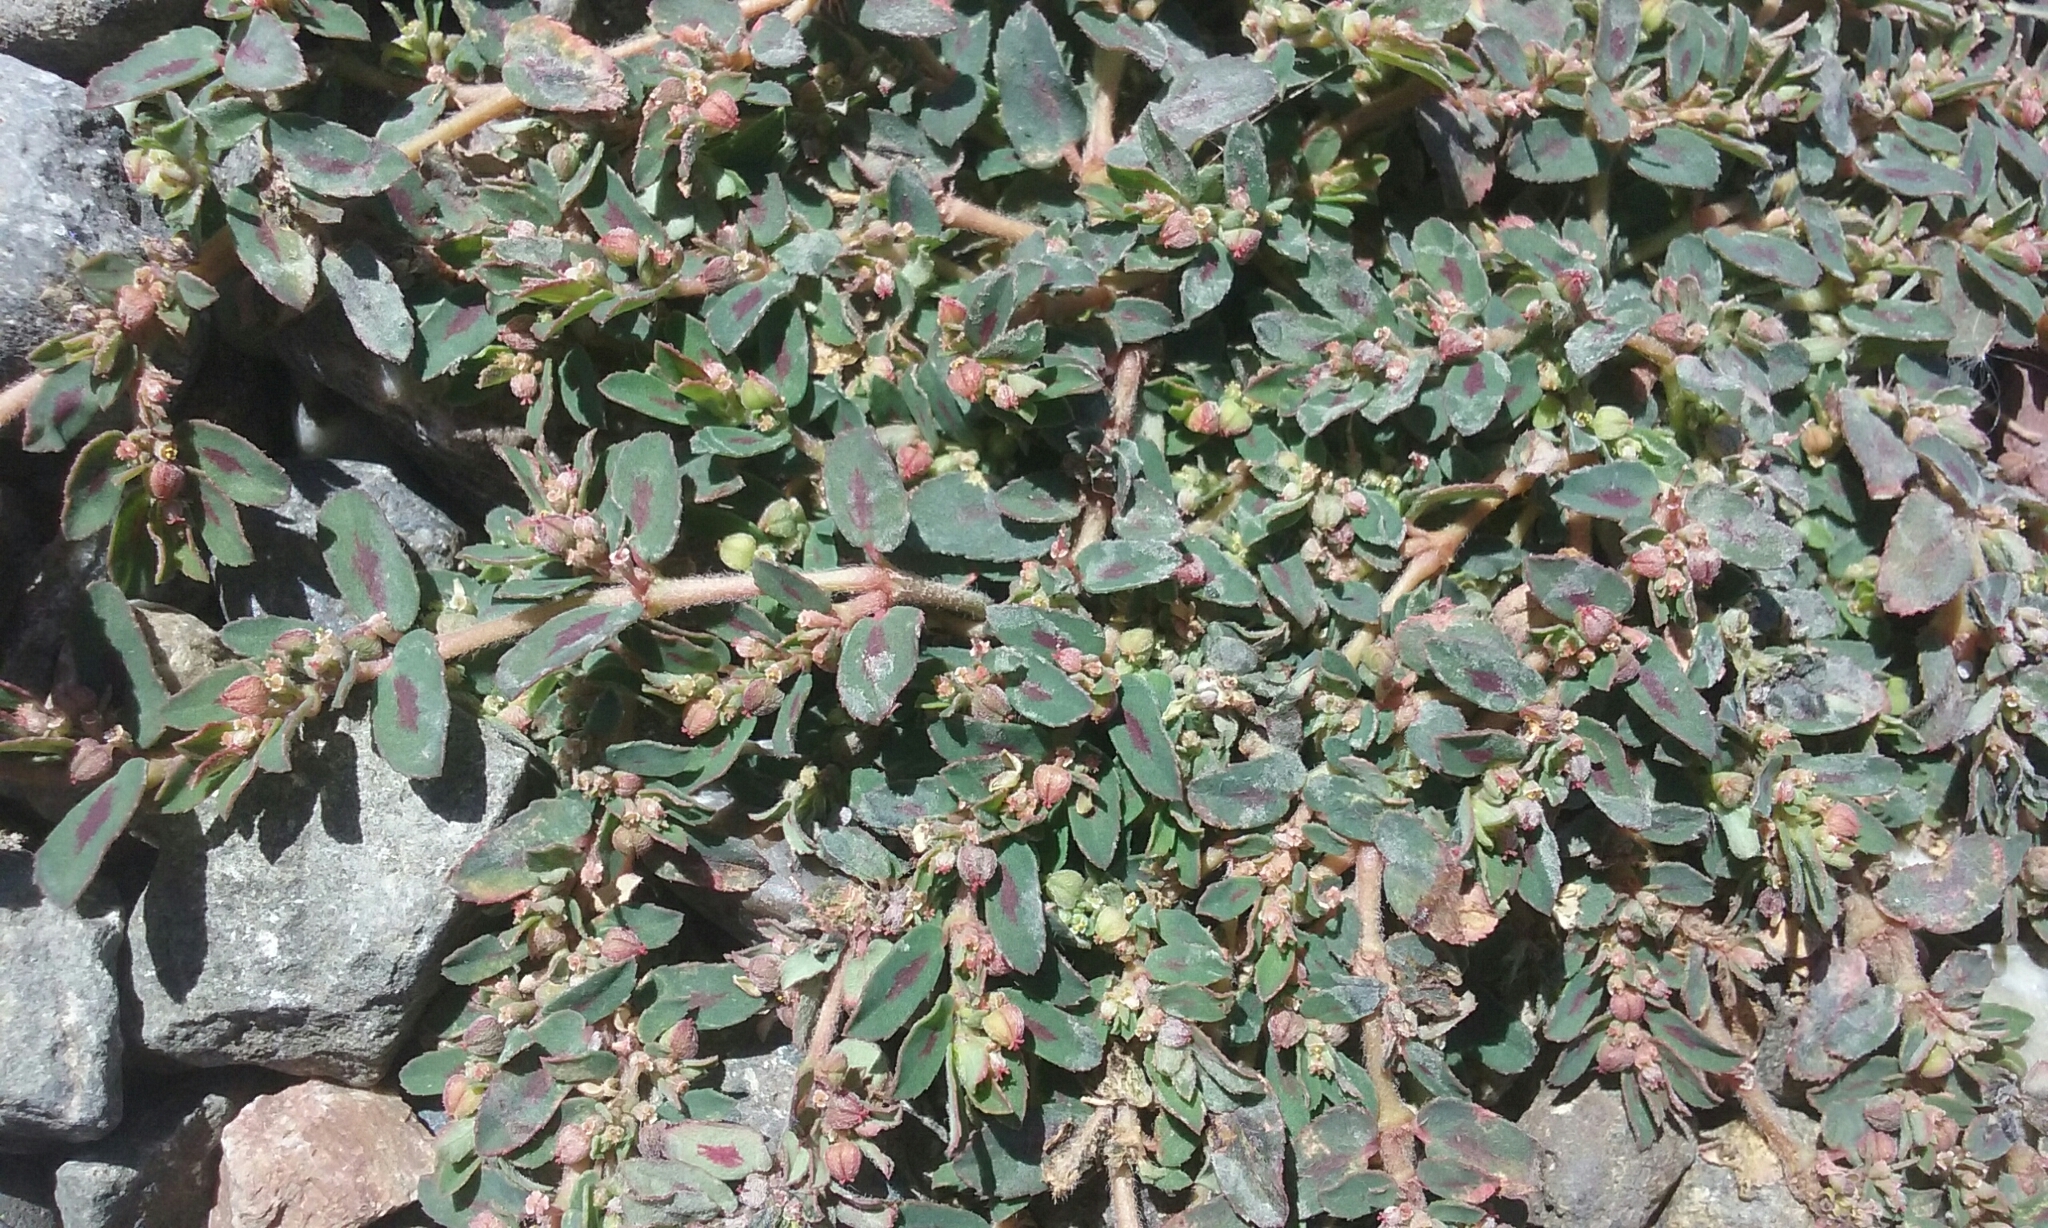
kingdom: Plantae
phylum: Tracheophyta
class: Magnoliopsida
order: Malpighiales
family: Euphorbiaceae
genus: Euphorbia
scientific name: Euphorbia maculata
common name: Spotted spurge
